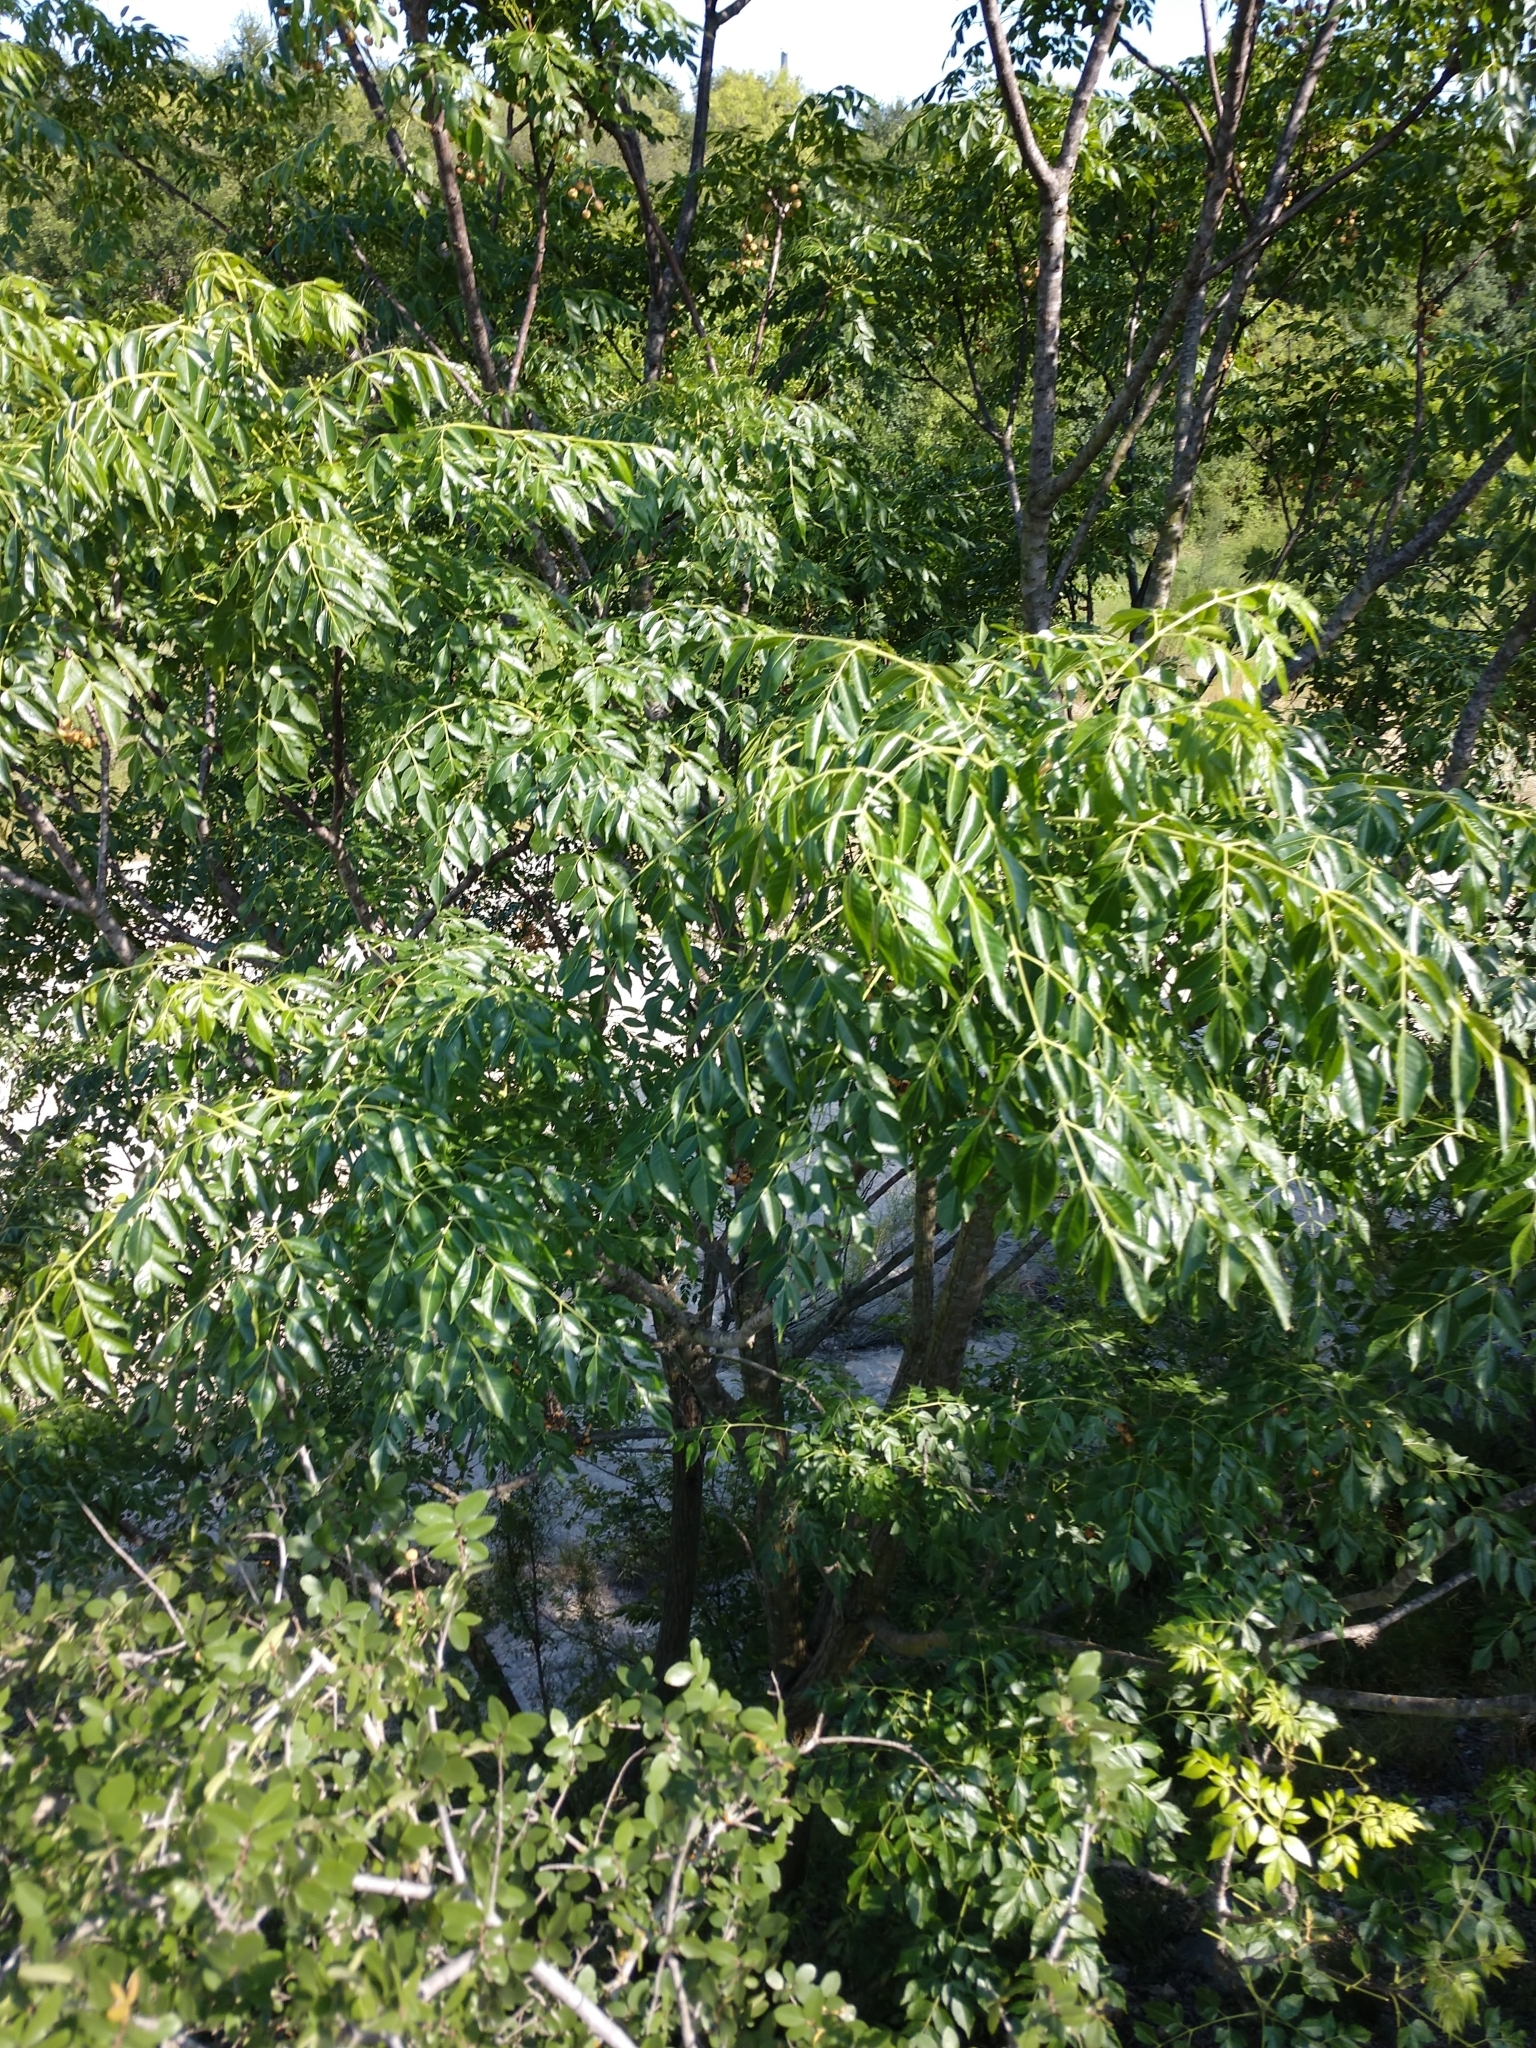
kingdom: Plantae
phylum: Tracheophyta
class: Magnoliopsida
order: Sapindales
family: Meliaceae
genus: Melia
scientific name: Melia azedarach
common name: Chinaberrytree
